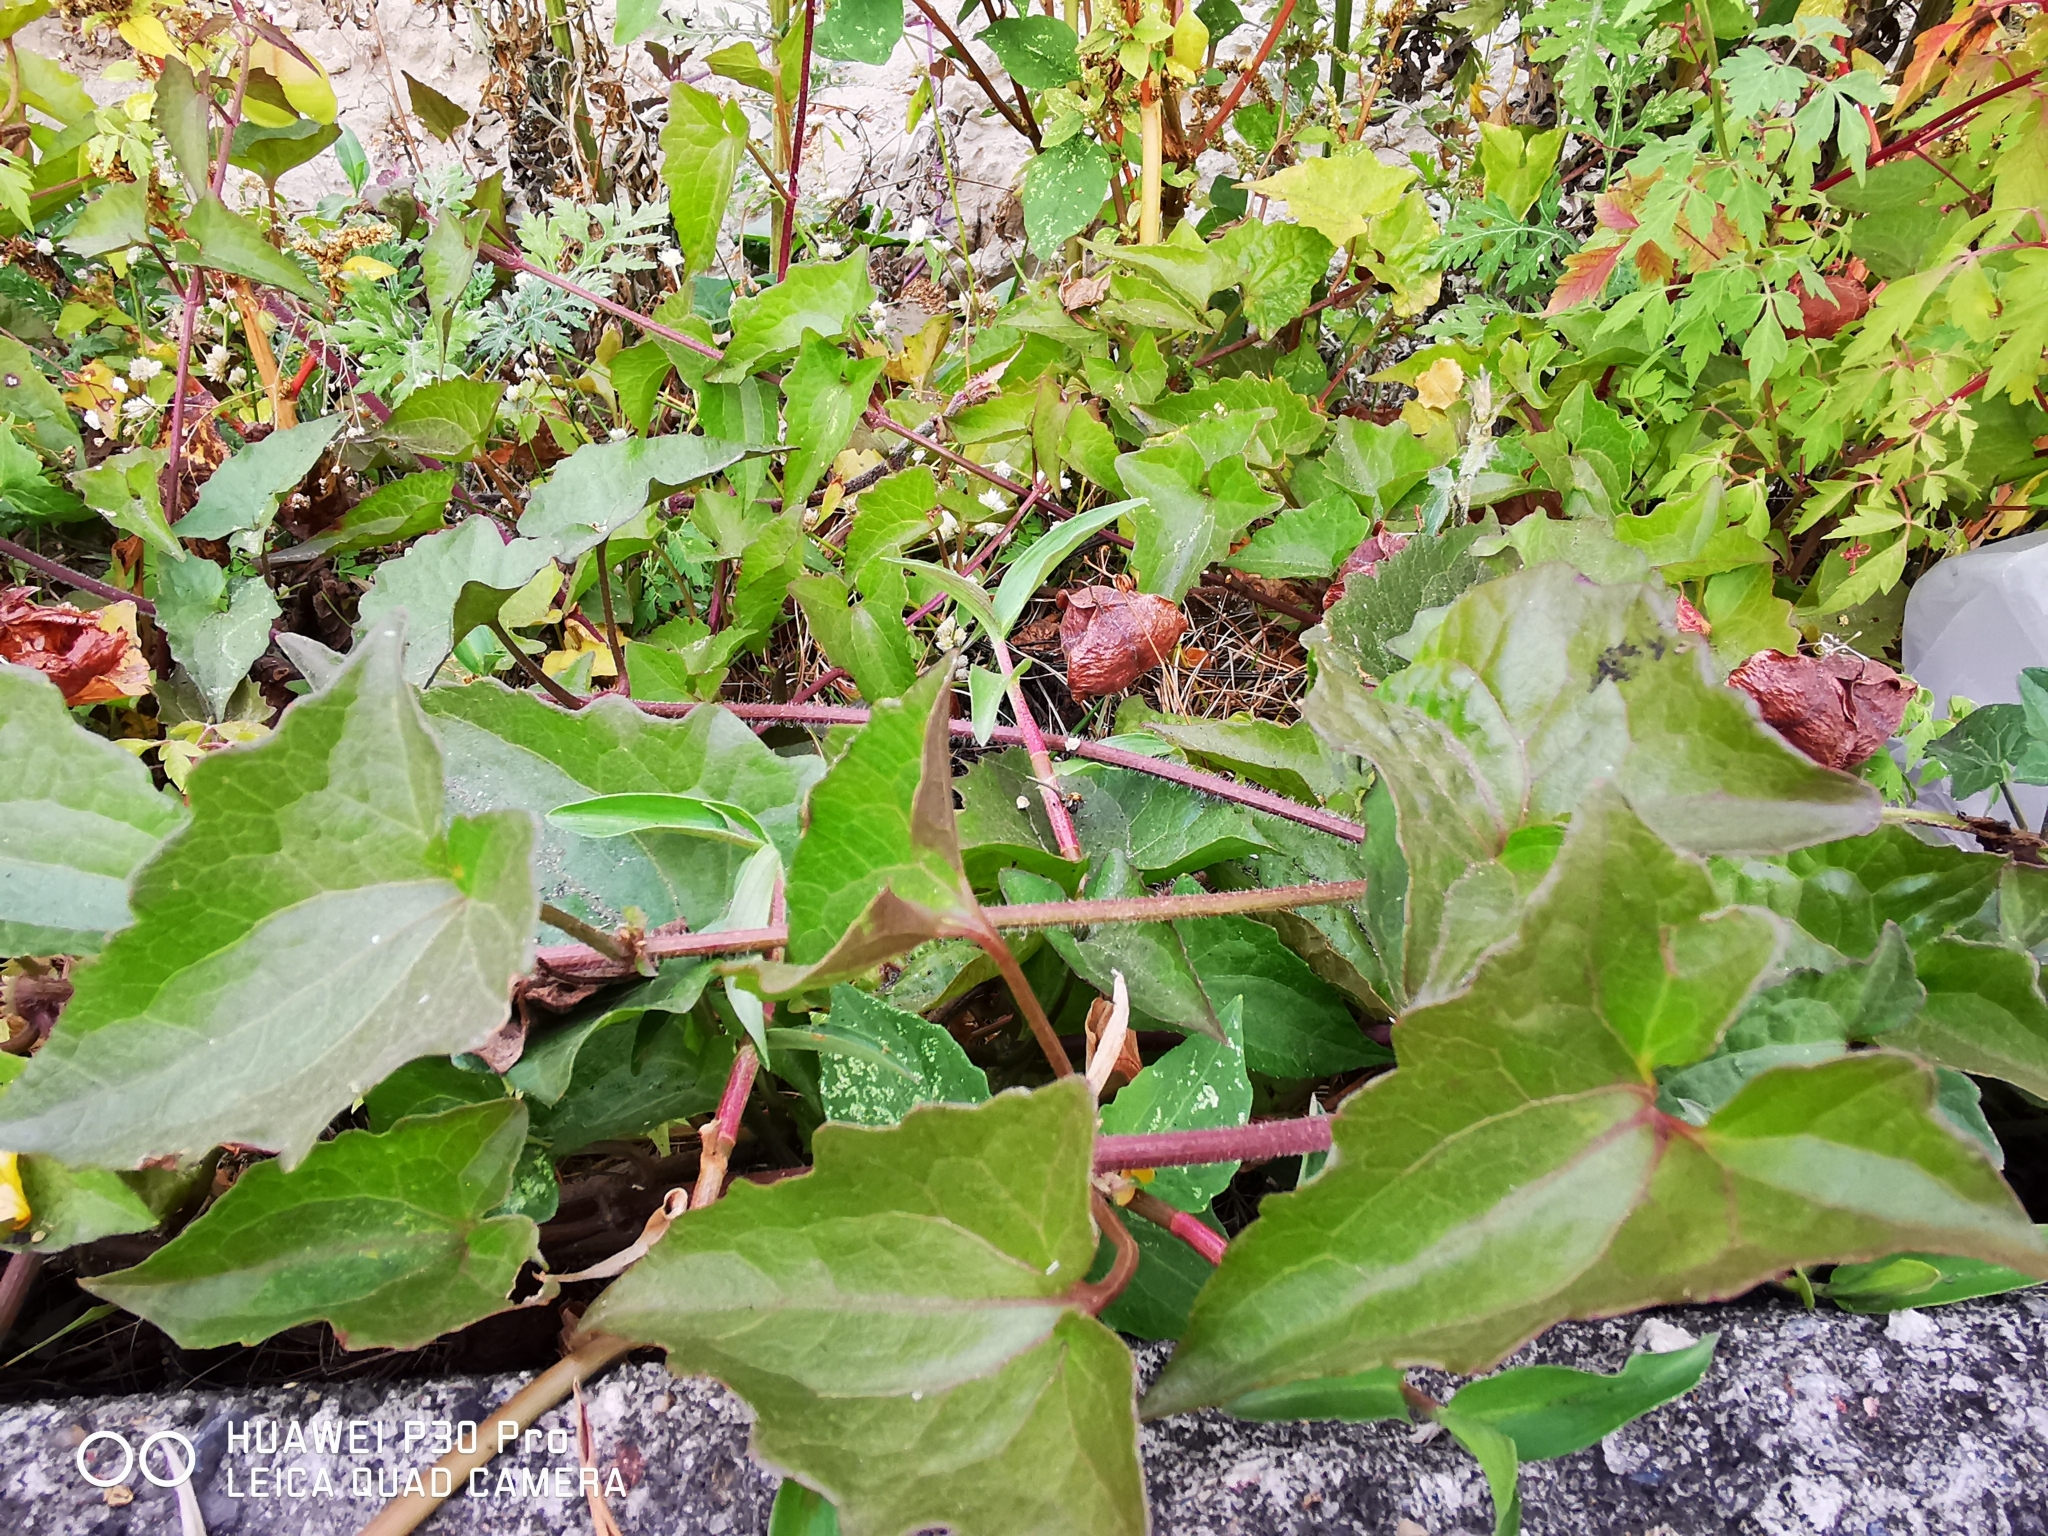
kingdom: Plantae
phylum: Tracheophyta
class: Magnoliopsida
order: Asterales
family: Asteraceae
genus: Mikania
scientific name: Mikania micrantha
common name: Mile-a-minute
